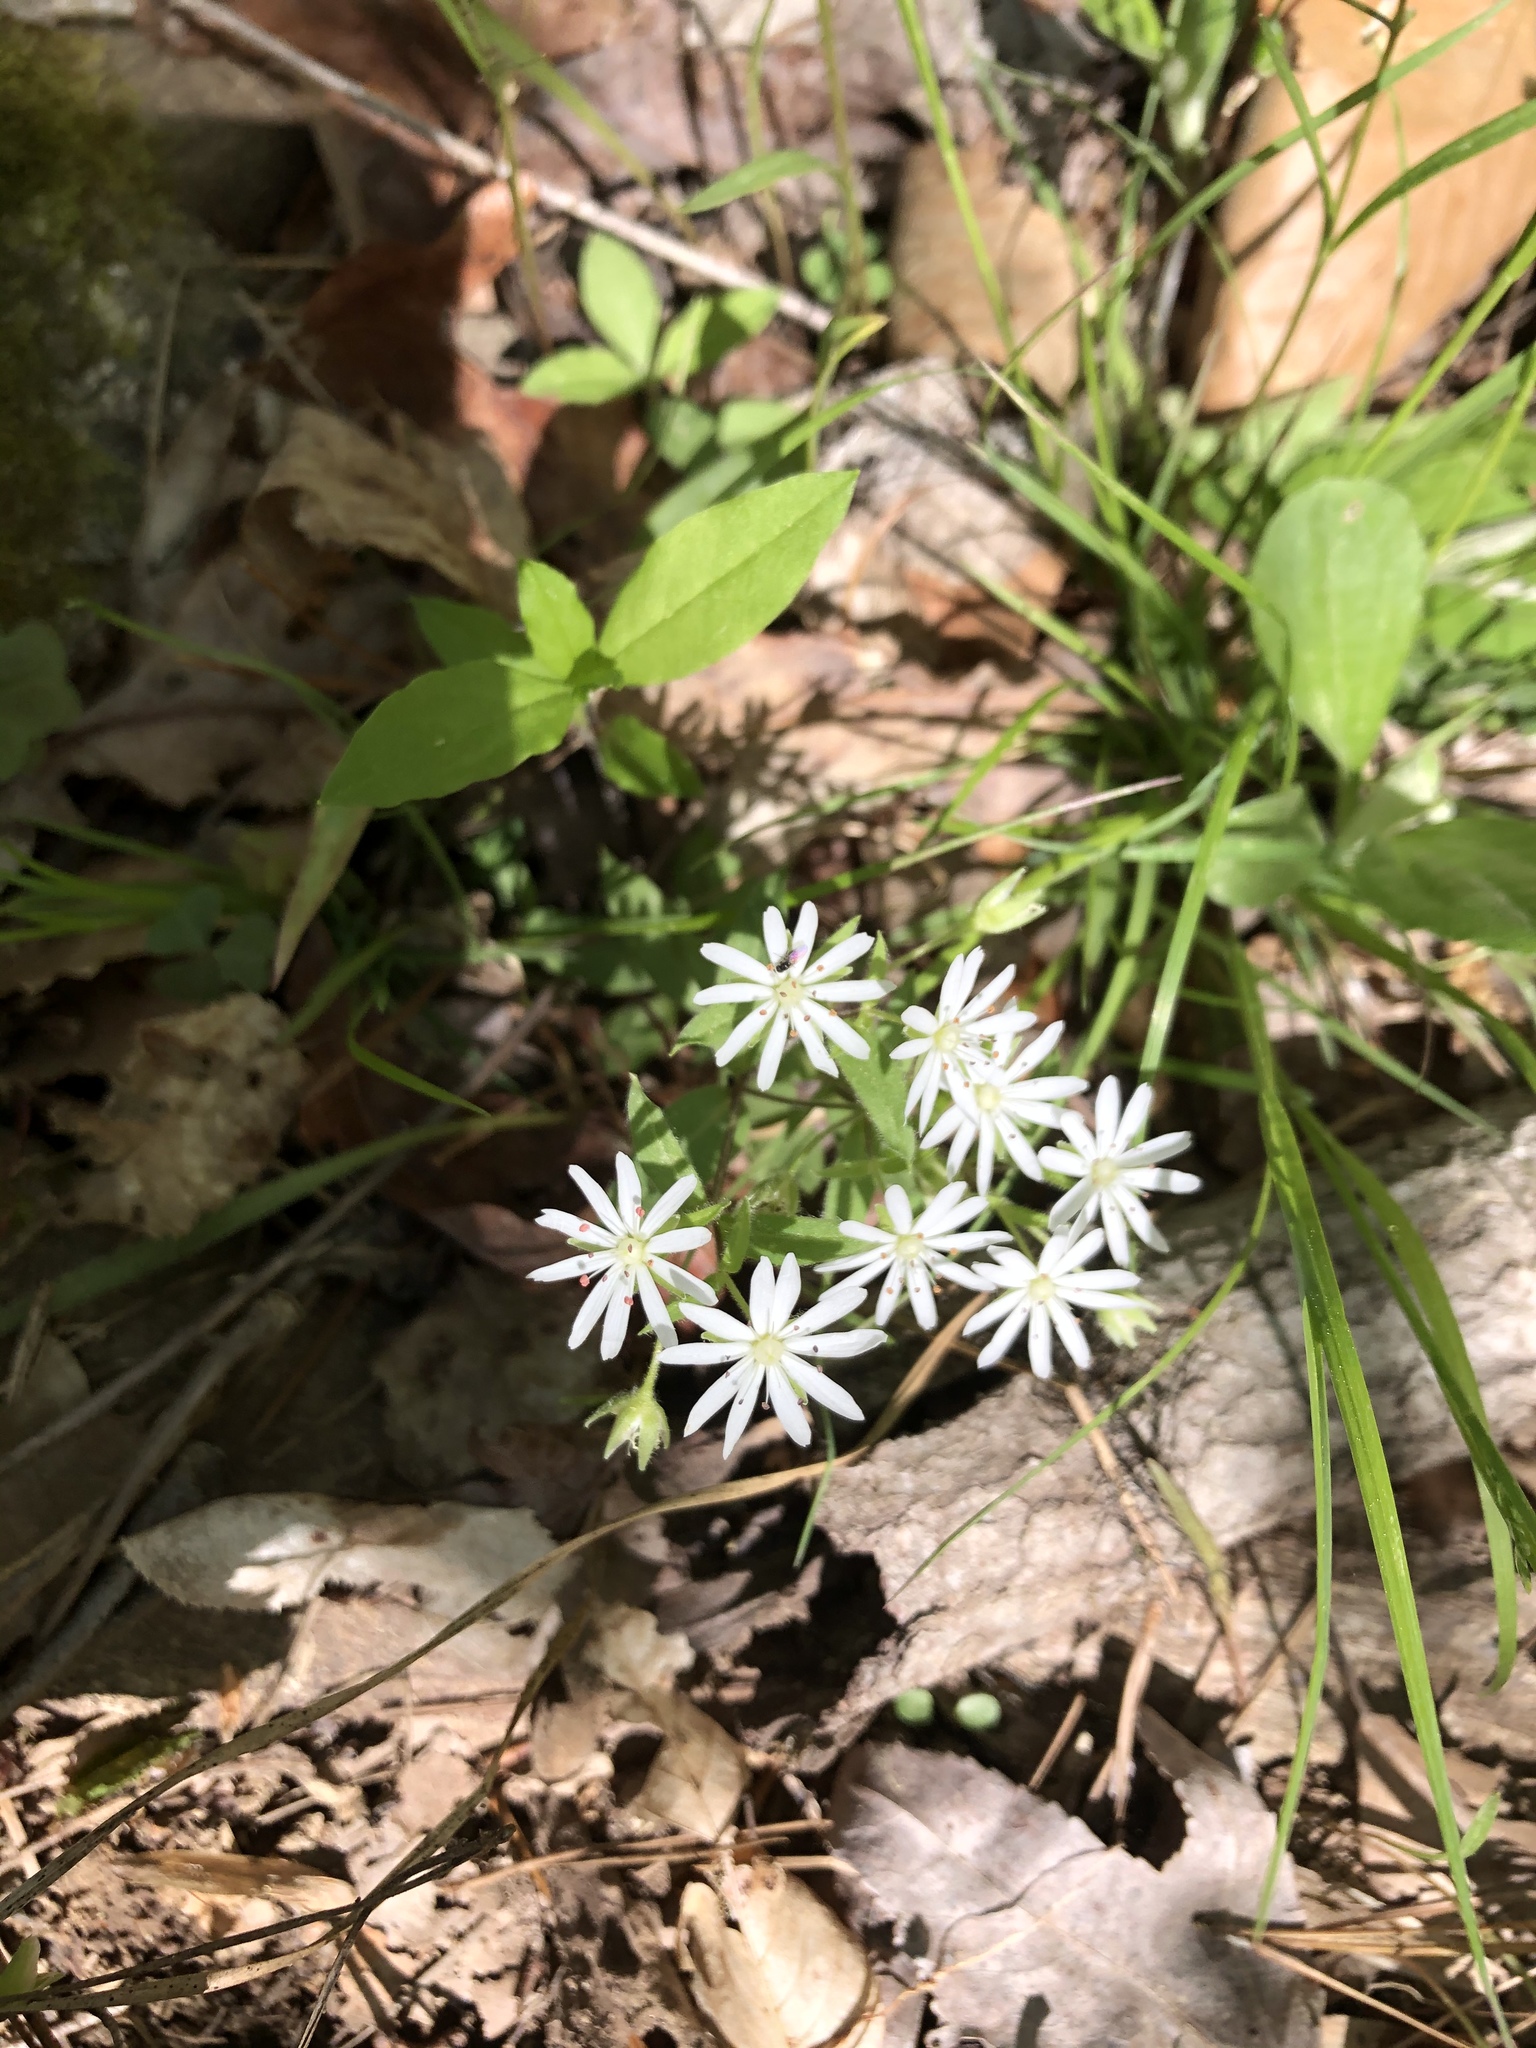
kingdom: Plantae
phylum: Tracheophyta
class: Magnoliopsida
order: Caryophyllales
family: Caryophyllaceae
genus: Stellaria
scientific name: Stellaria pubera
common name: Star chickweed
